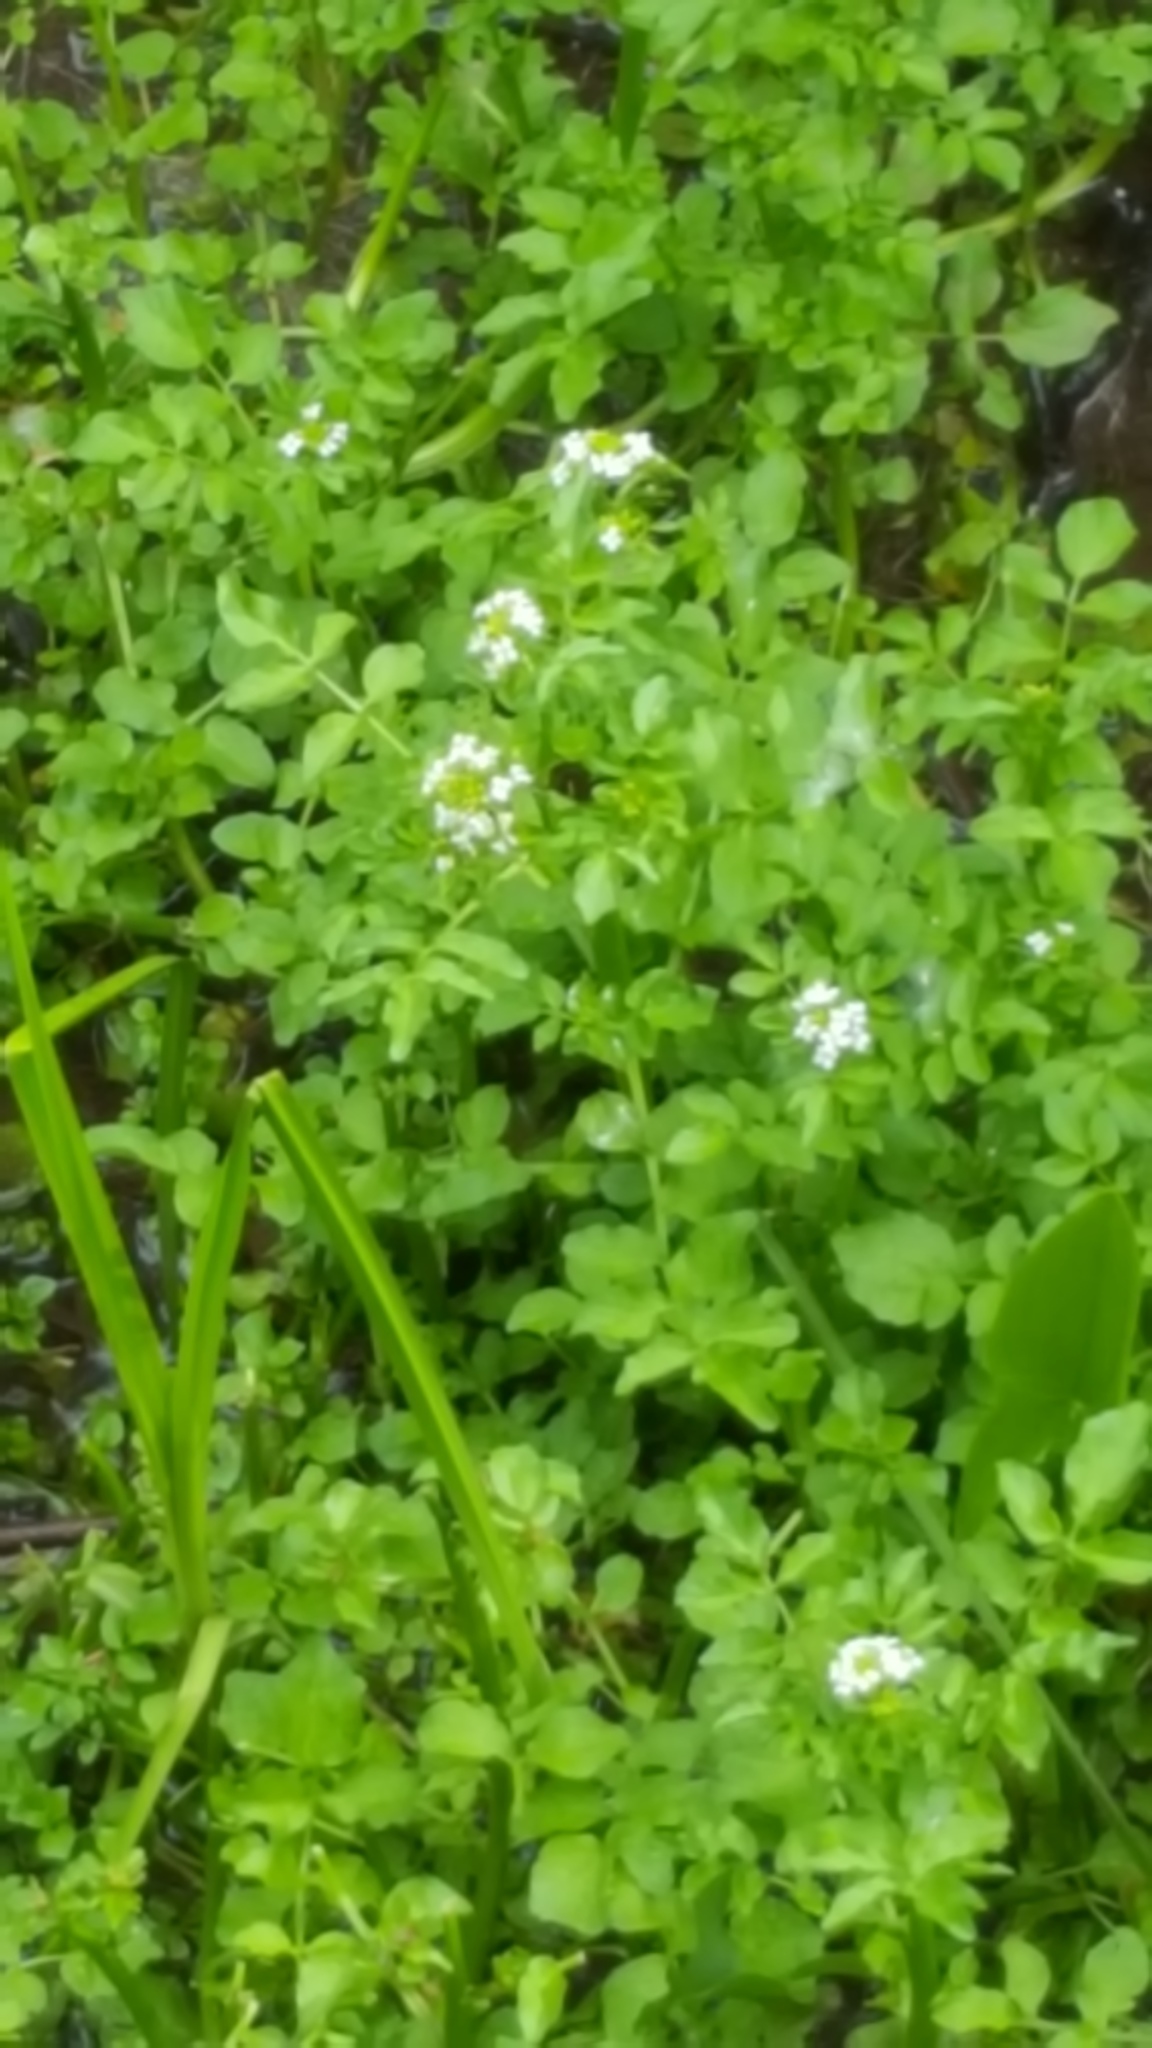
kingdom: Plantae
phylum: Tracheophyta
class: Magnoliopsida
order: Brassicales
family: Brassicaceae
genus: Nasturtium
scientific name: Nasturtium officinale
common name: Watercress
